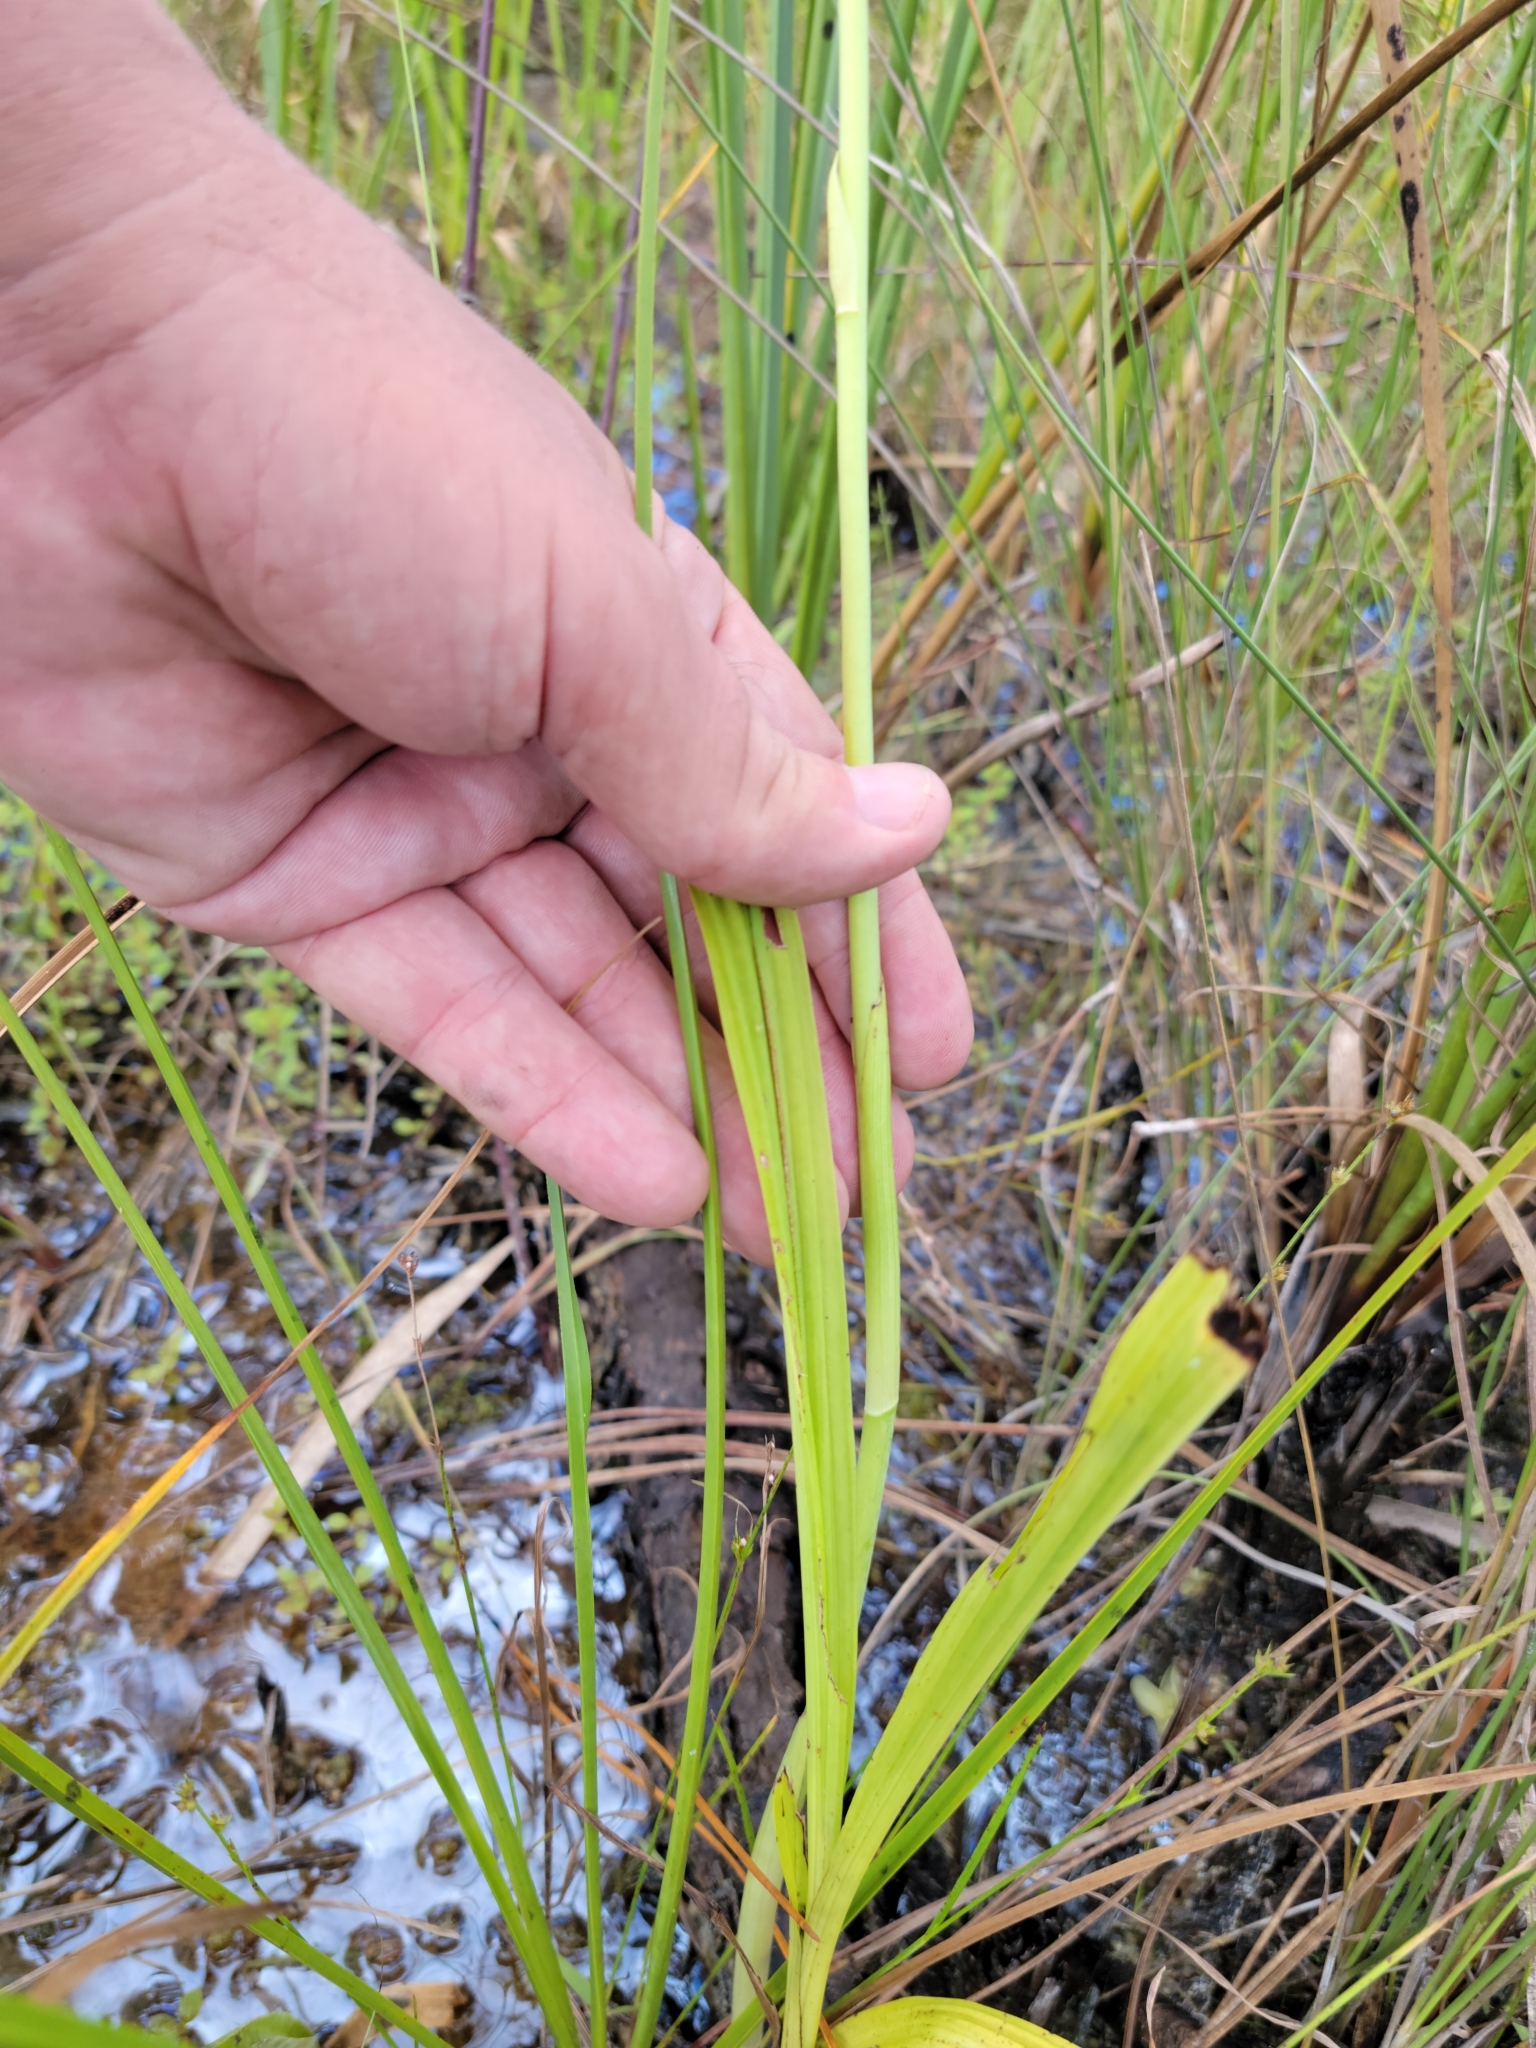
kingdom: Plantae
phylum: Tracheophyta
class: Liliopsida
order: Asparagales
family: Orchidaceae
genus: Eulophia
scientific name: Eulophia alta
